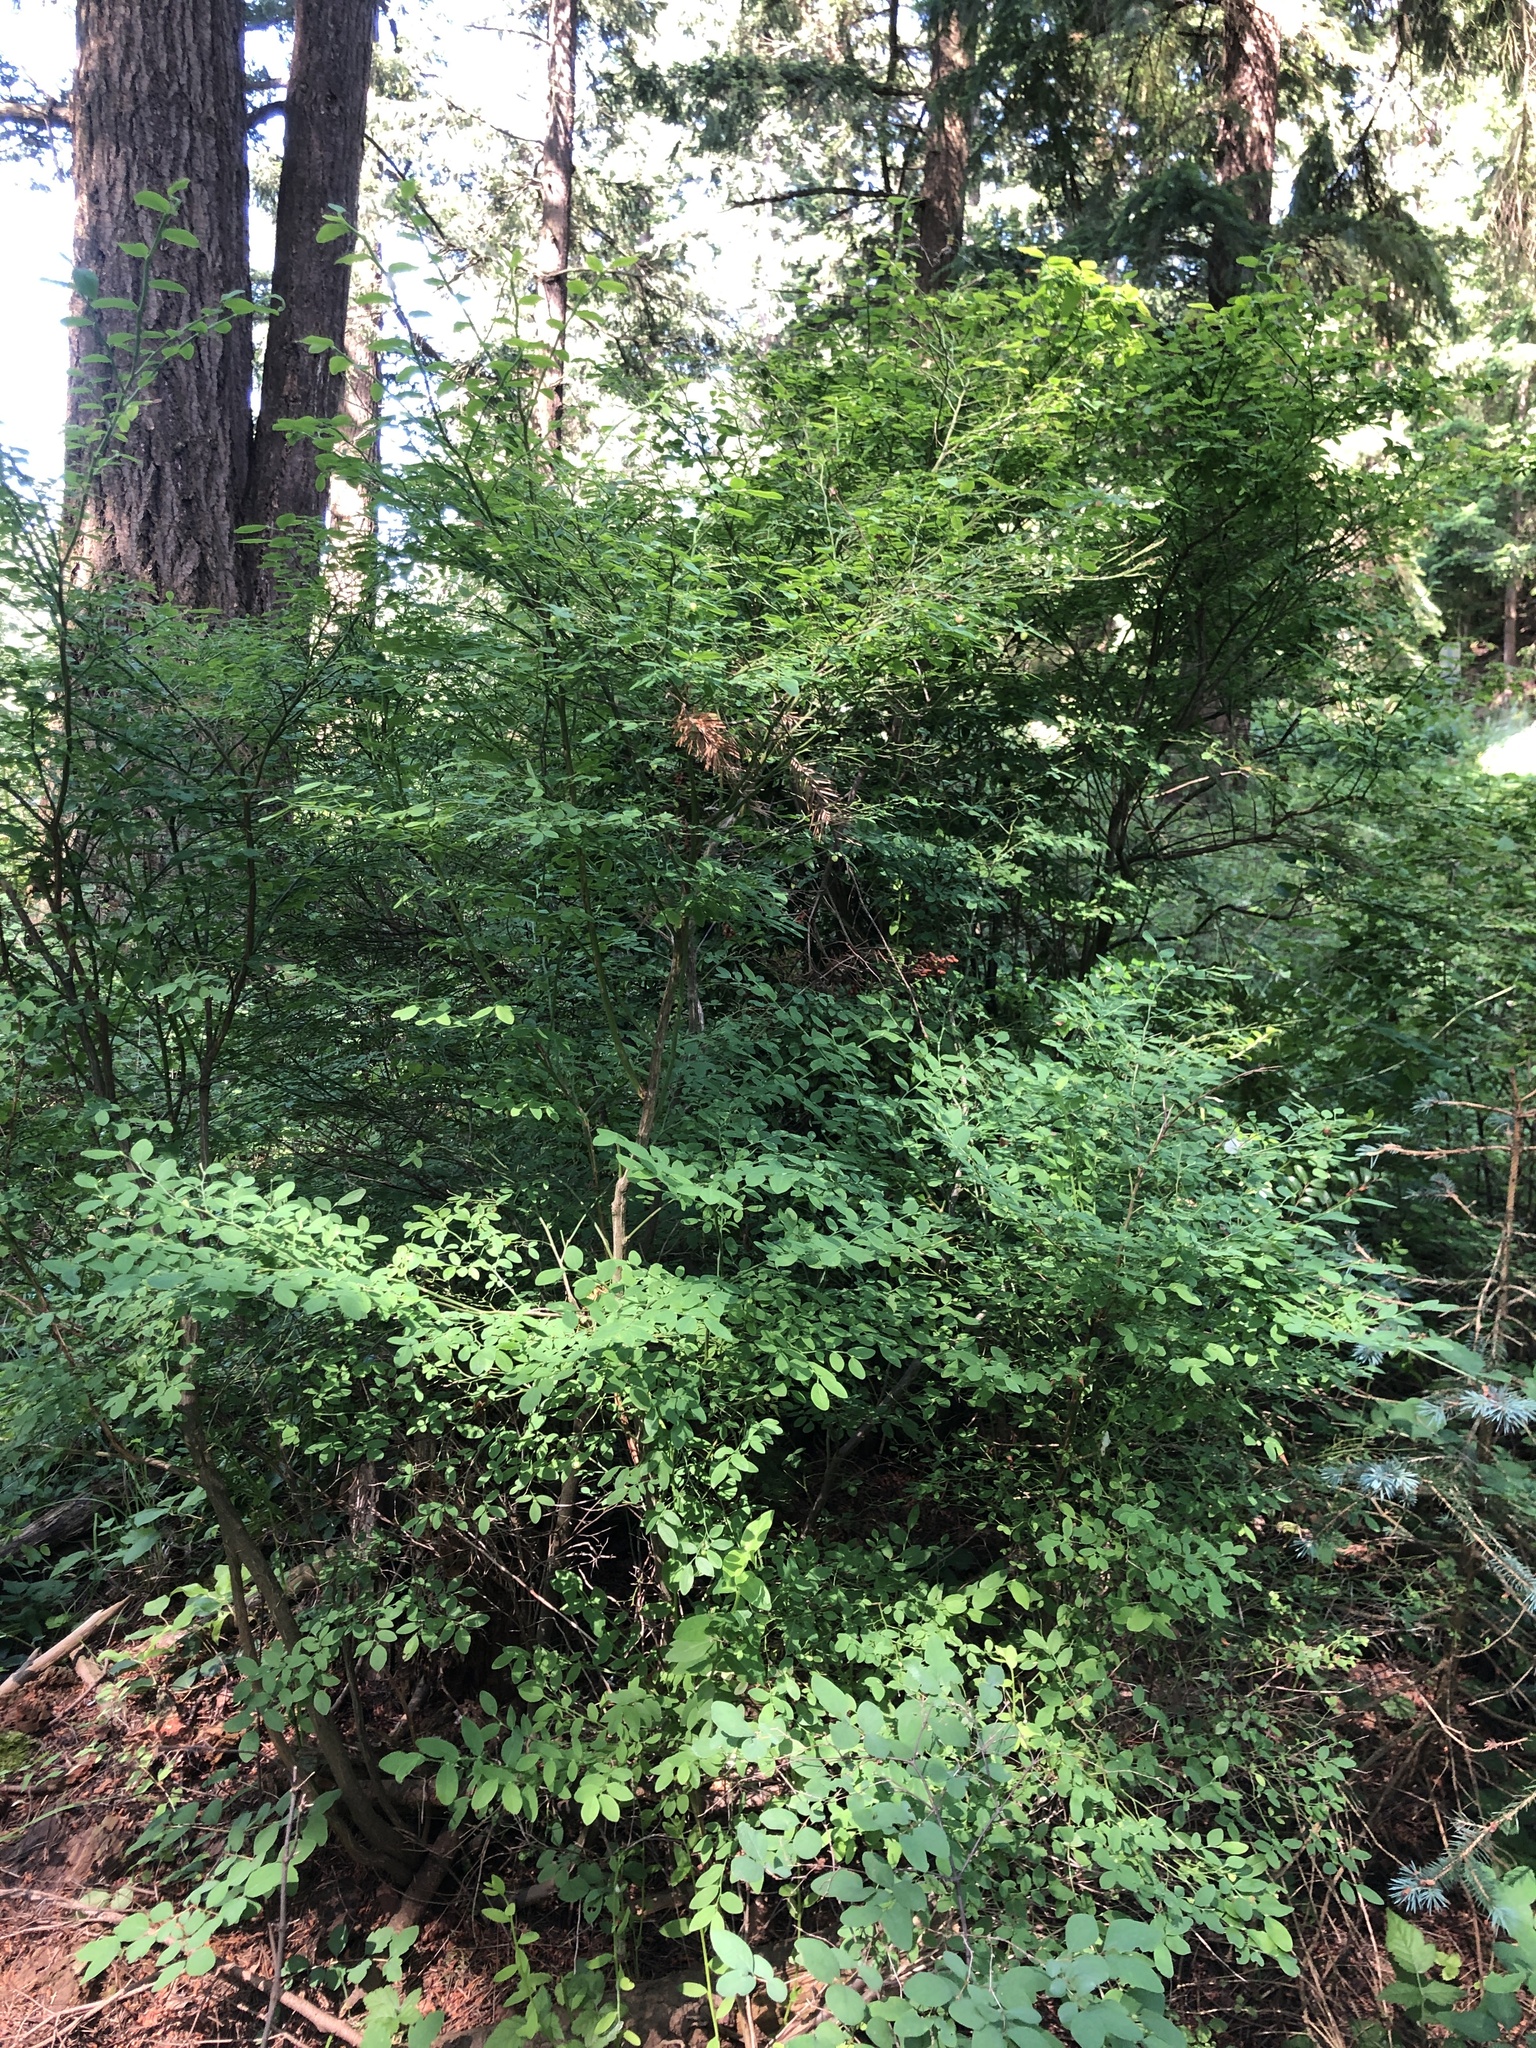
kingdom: Plantae
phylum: Tracheophyta
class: Magnoliopsida
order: Ericales
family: Ericaceae
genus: Vaccinium
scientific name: Vaccinium parvifolium
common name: Red-huckleberry
